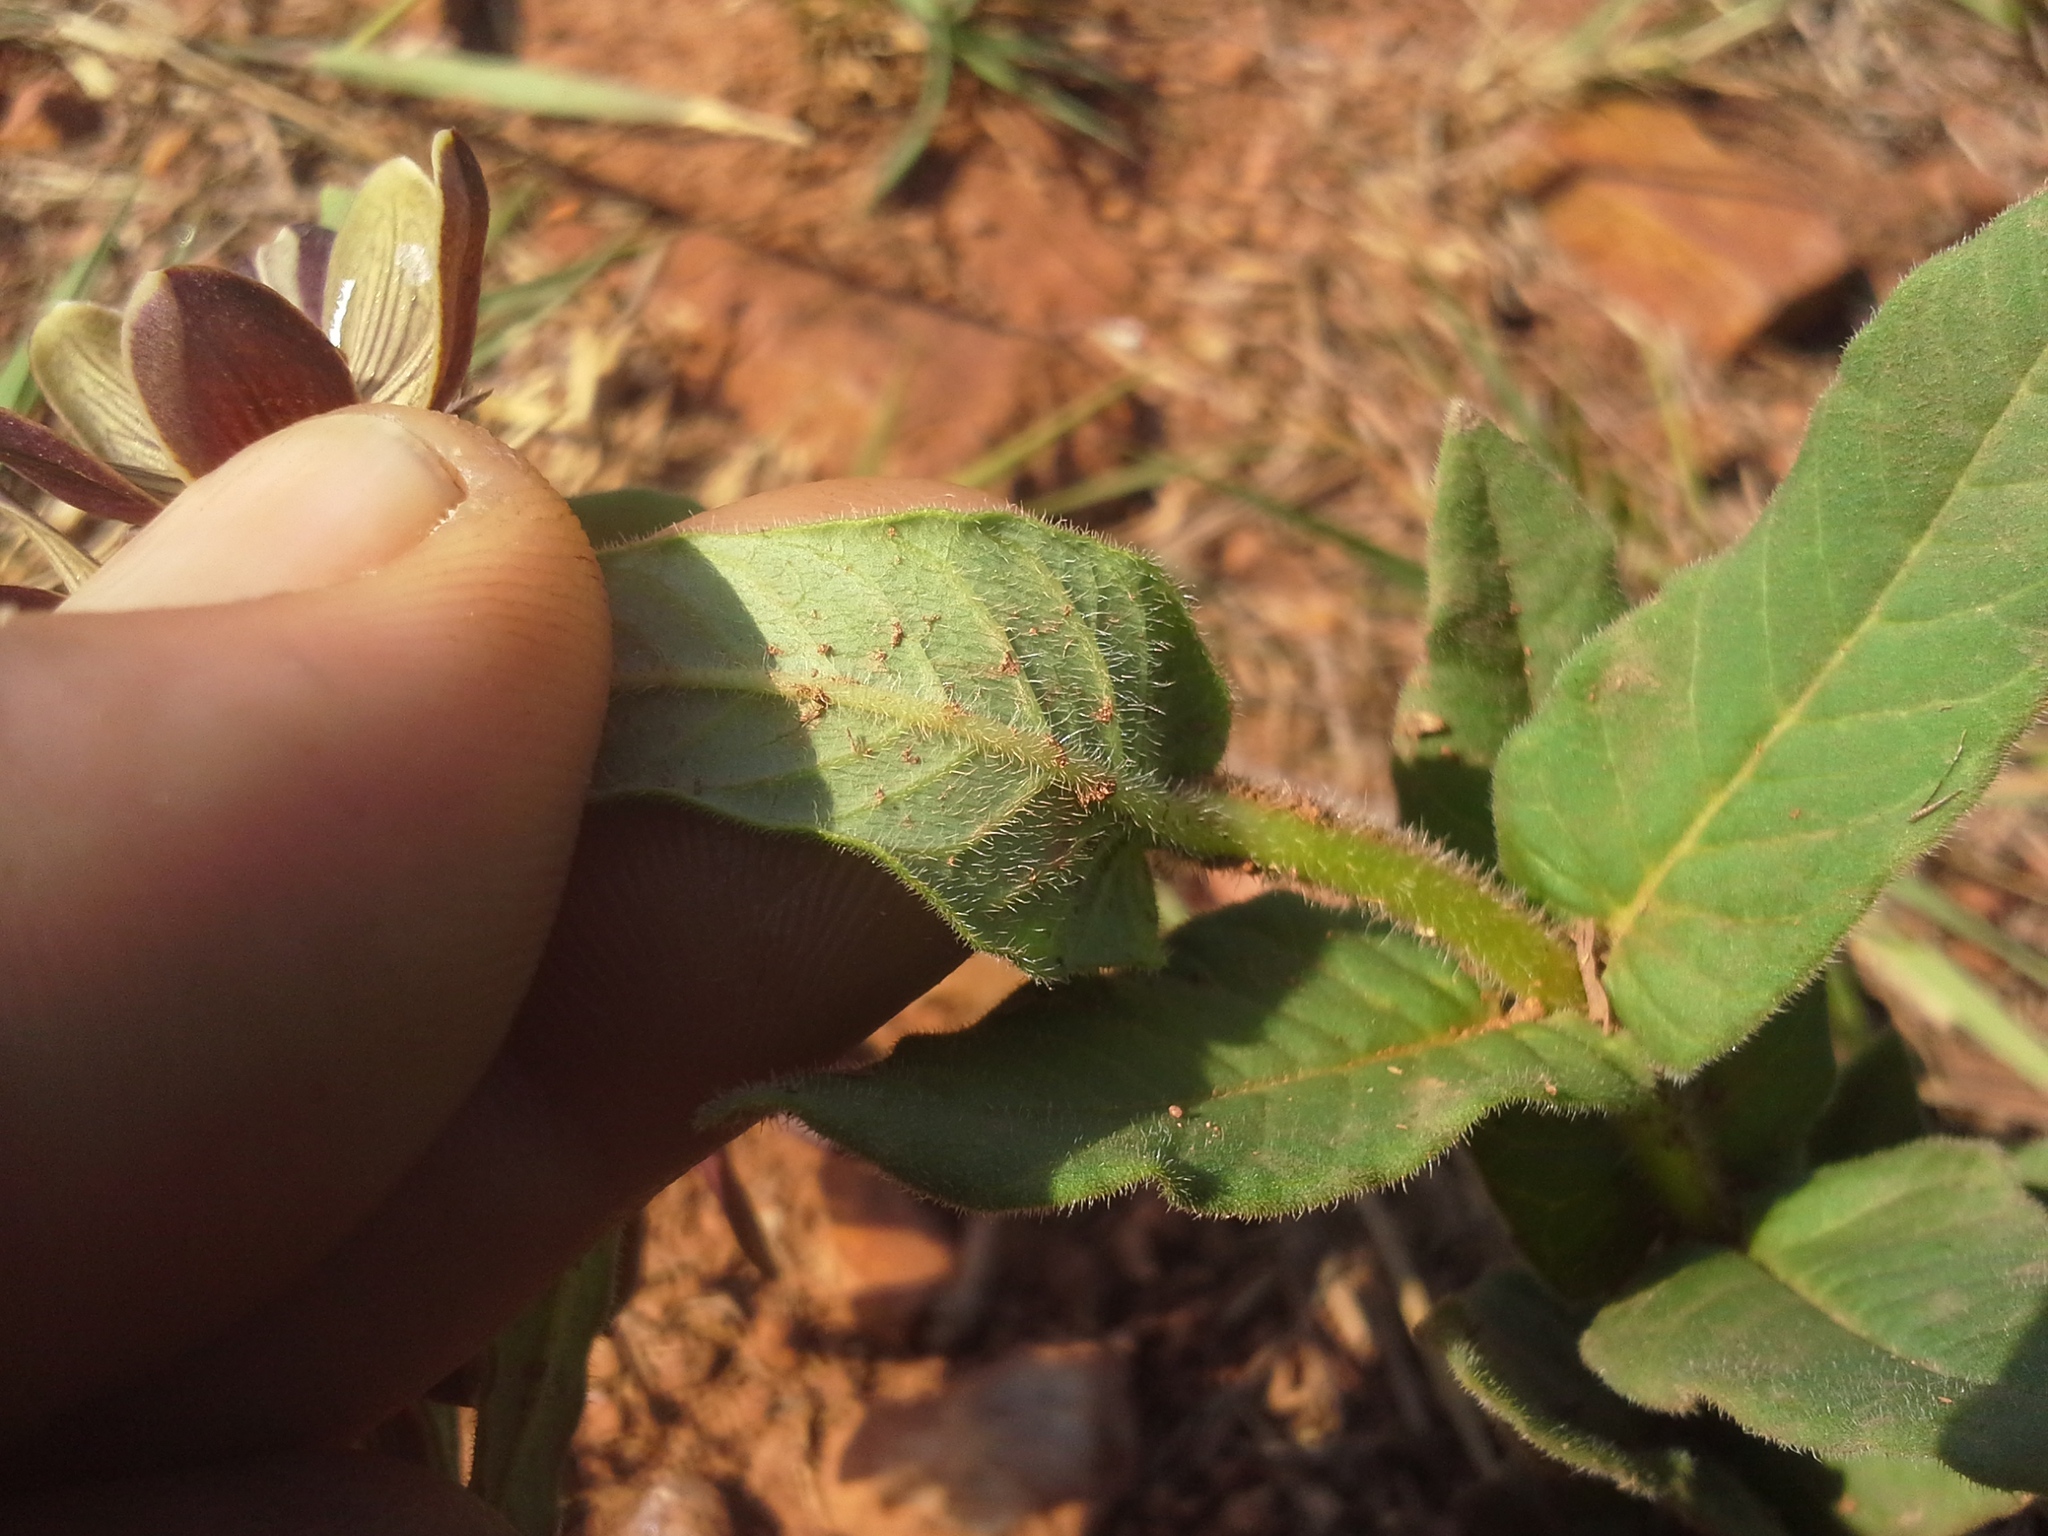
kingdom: Plantae
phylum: Tracheophyta
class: Magnoliopsida
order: Gentianales
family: Apocynaceae
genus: Schizoglossum
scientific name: Schizoglossum hamatum
